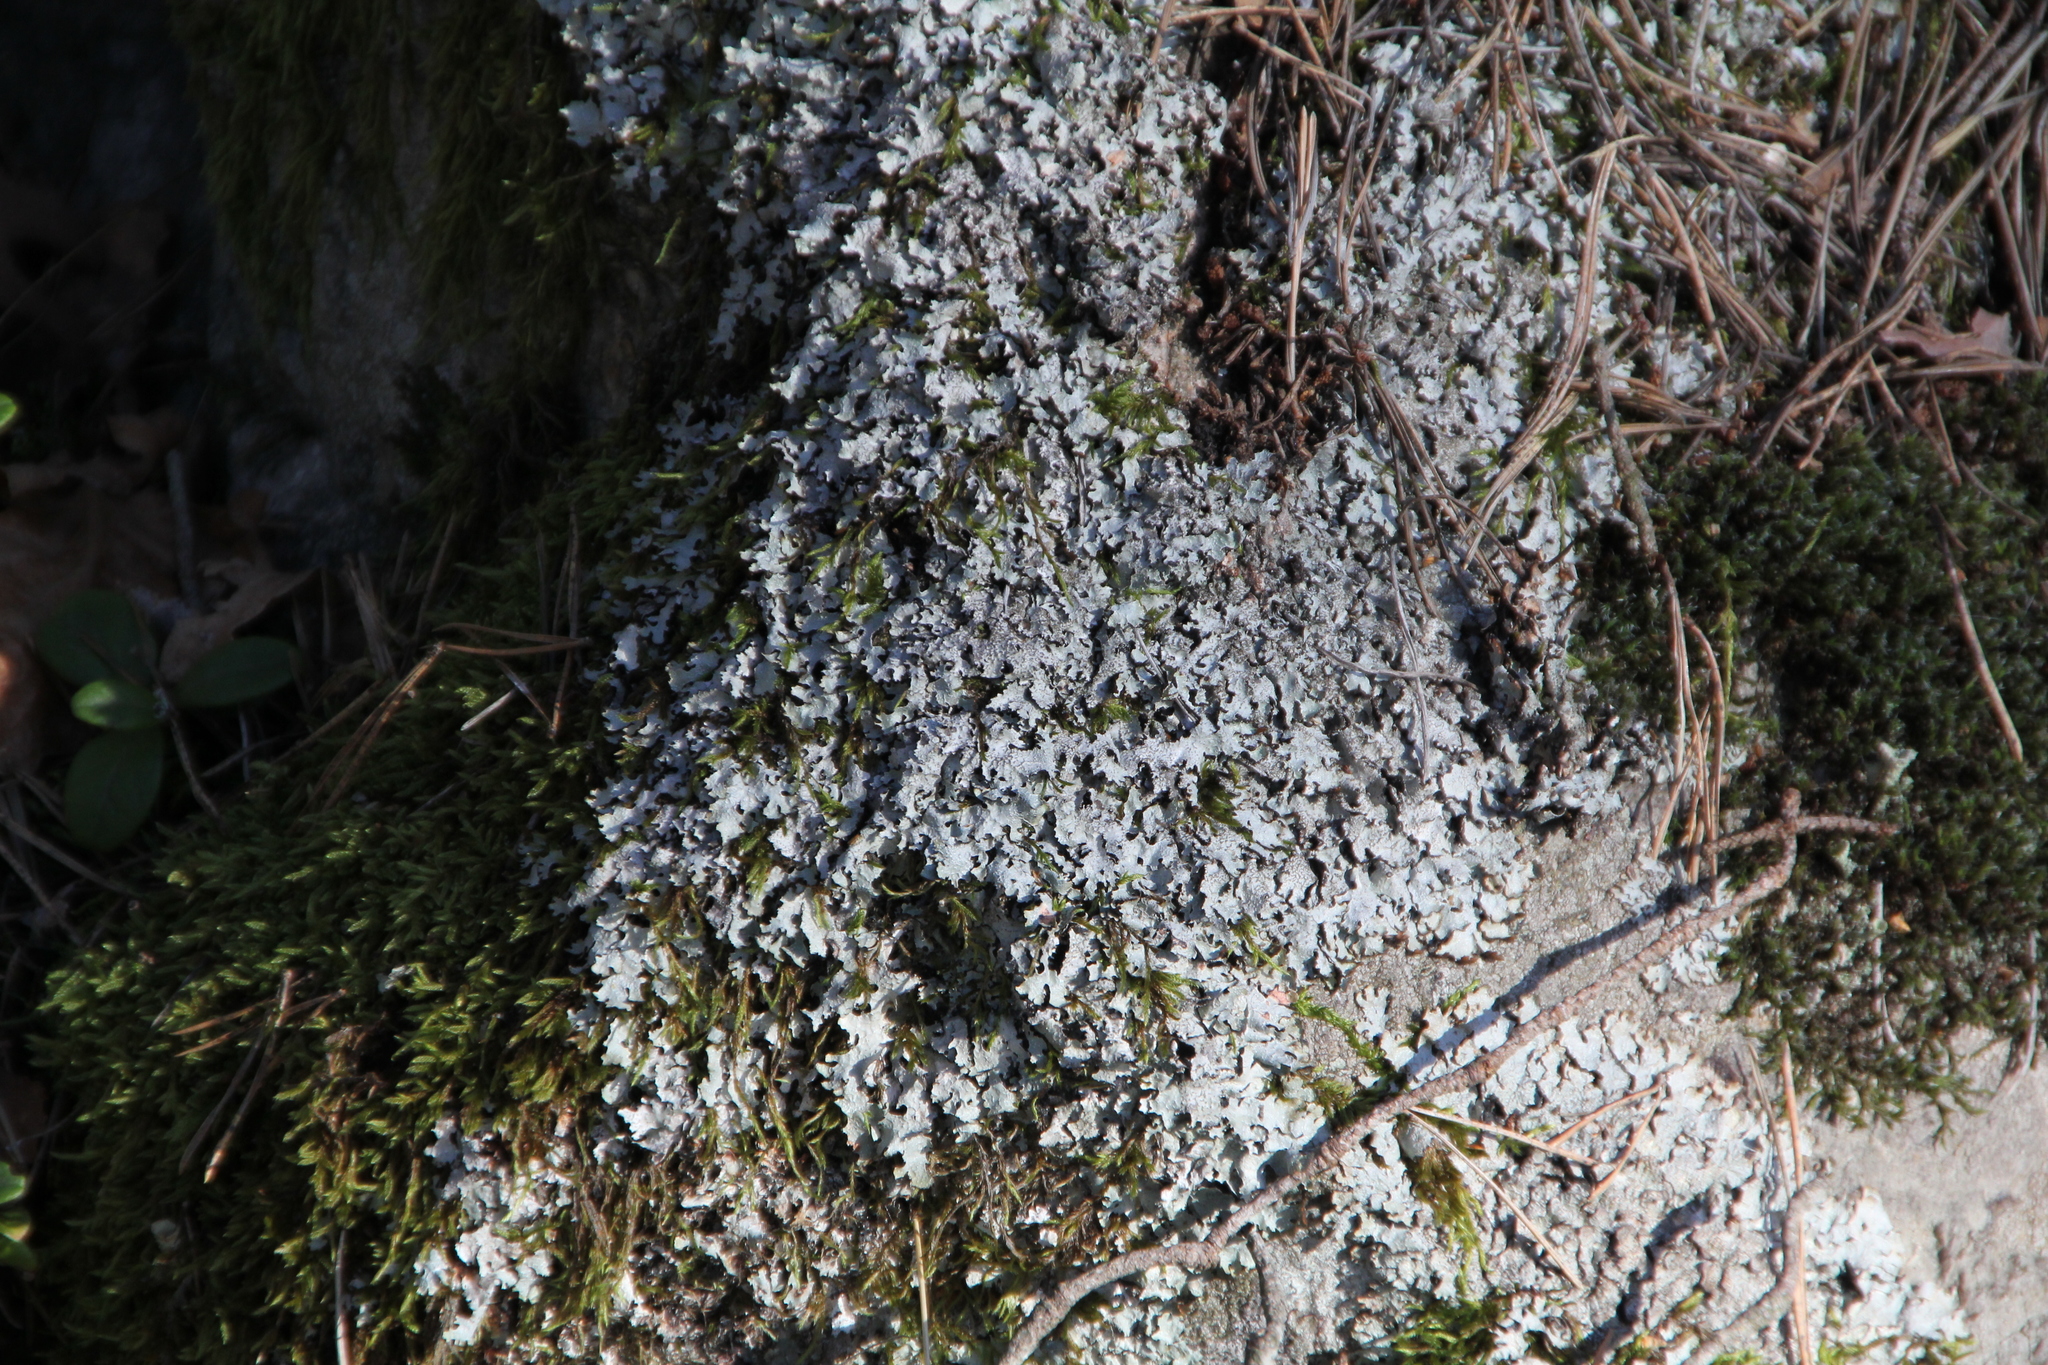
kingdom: Fungi
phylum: Ascomycota
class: Lecanoromycetes
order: Lecanorales
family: Parmeliaceae
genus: Parmelia
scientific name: Parmelia saxatilis
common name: Salted shield lichen
